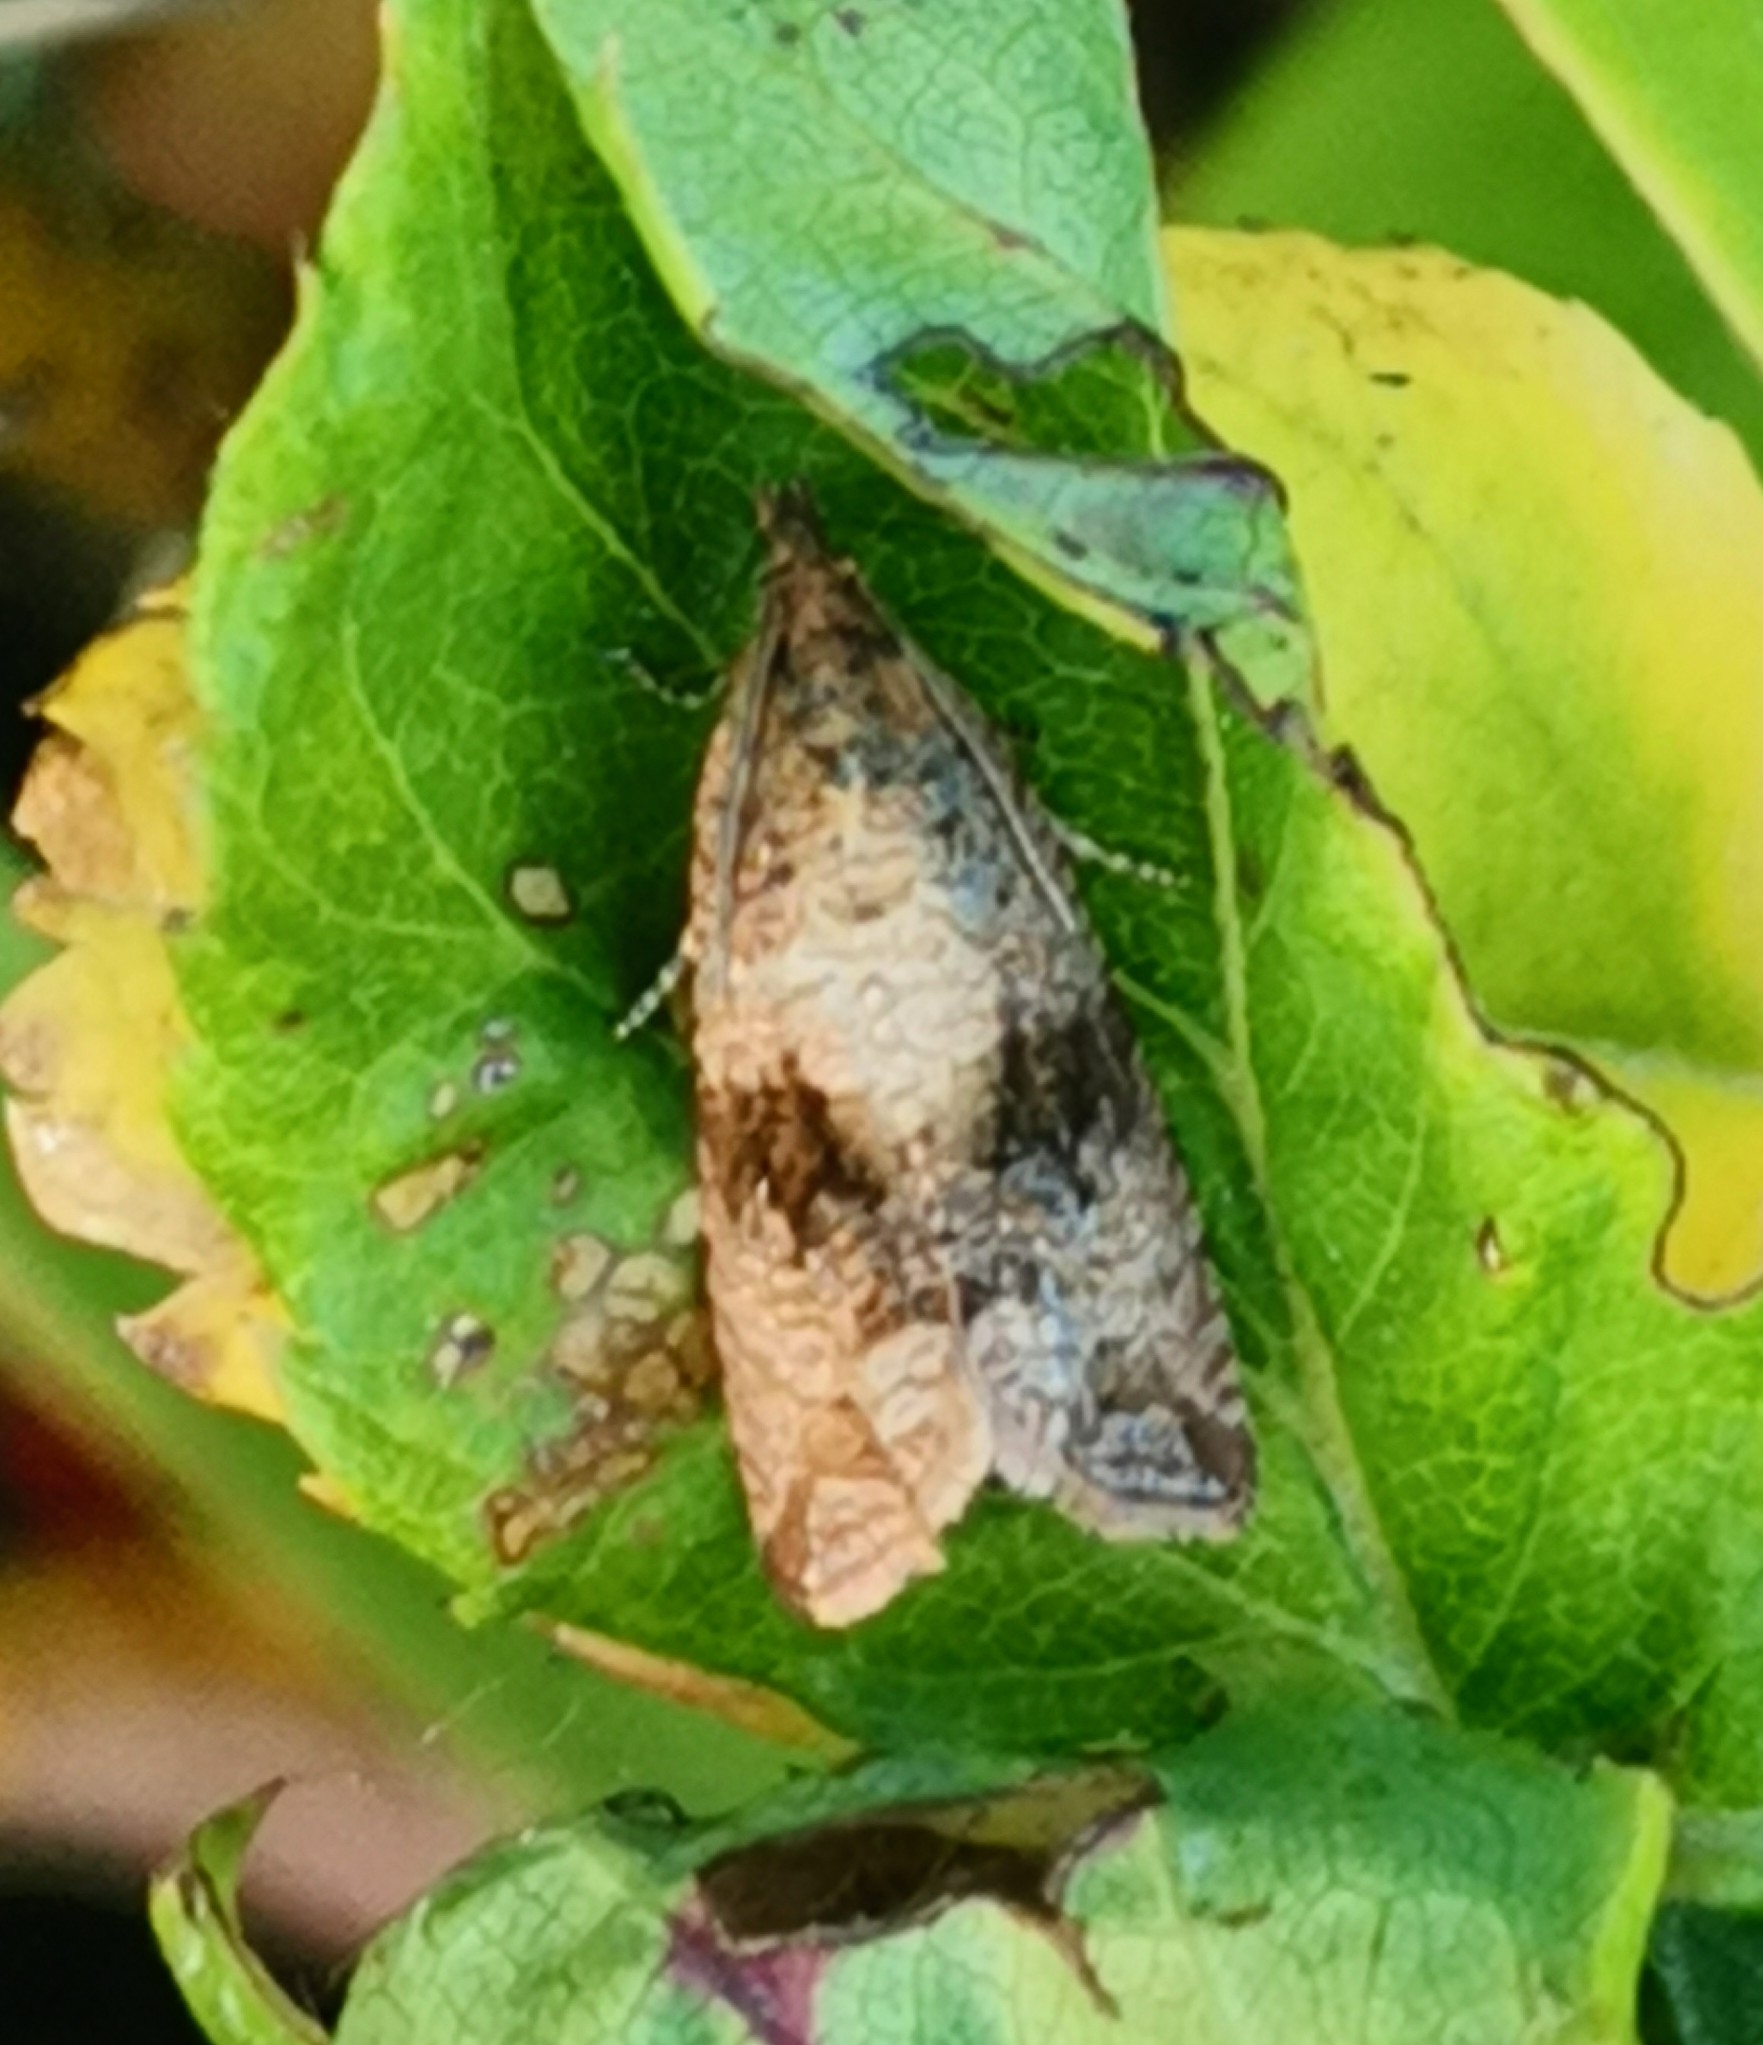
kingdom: Animalia
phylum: Arthropoda
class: Insecta
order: Lepidoptera
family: Tortricidae
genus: Celypha
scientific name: Celypha striana
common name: Barred marble
